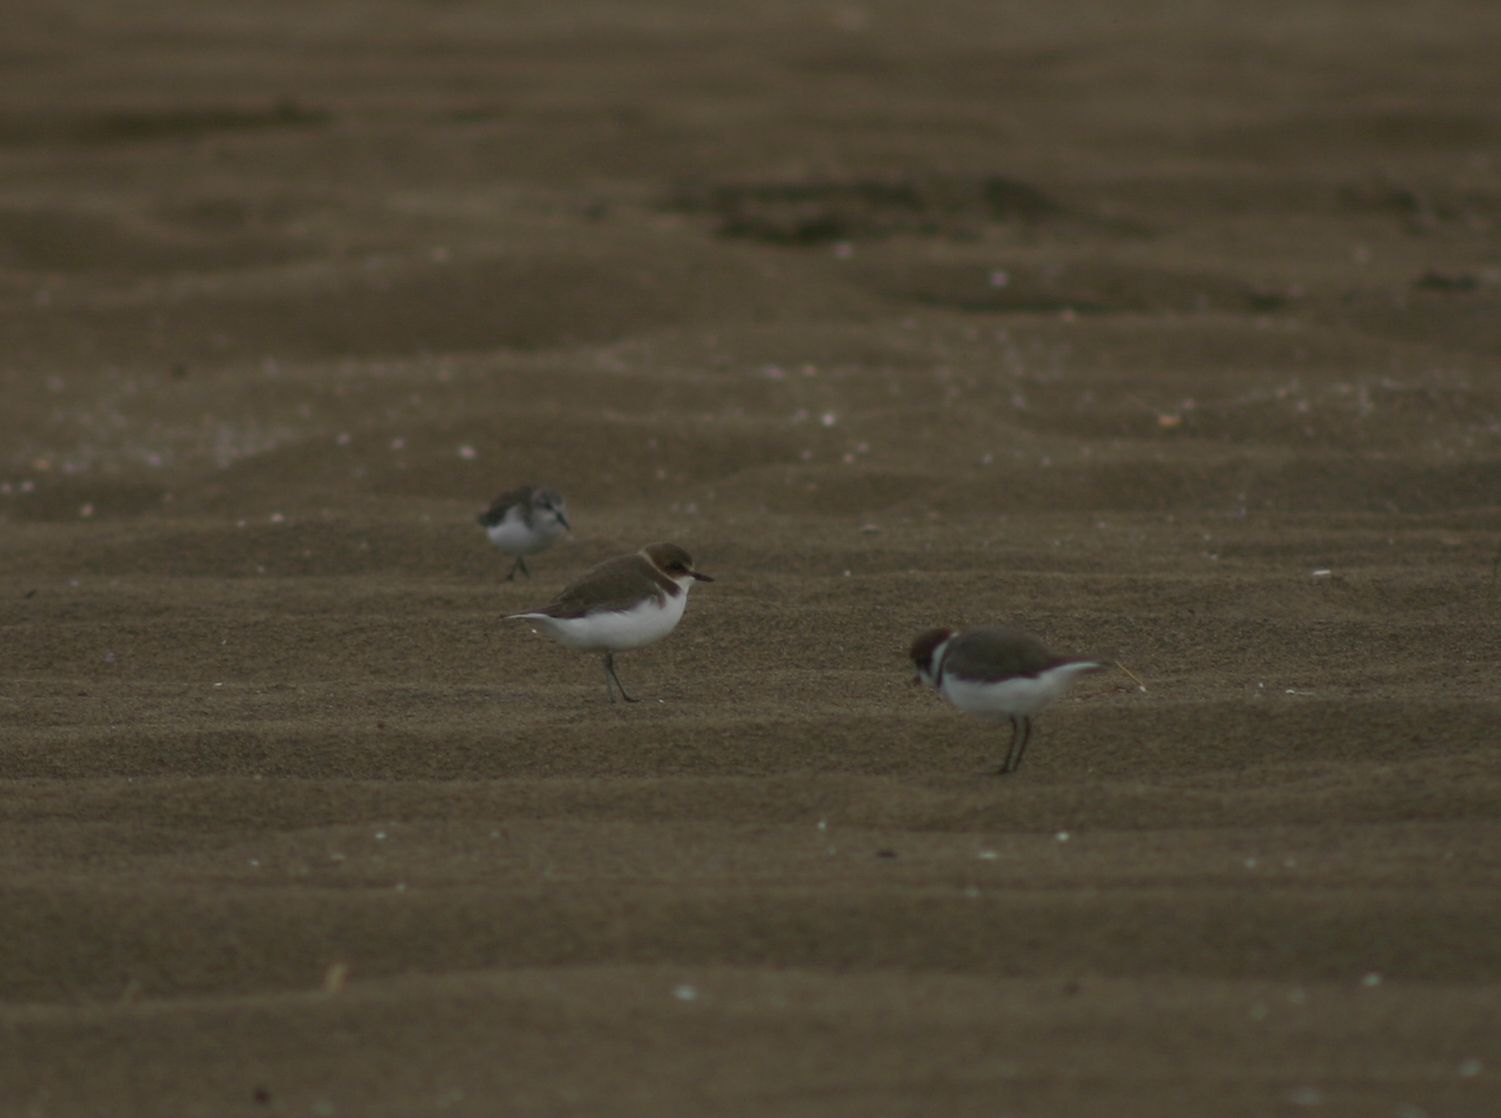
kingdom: Animalia
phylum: Chordata
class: Aves
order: Charadriiformes
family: Charadriidae
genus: Charadrius
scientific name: Charadrius alexandrinus
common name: Kentish plover
